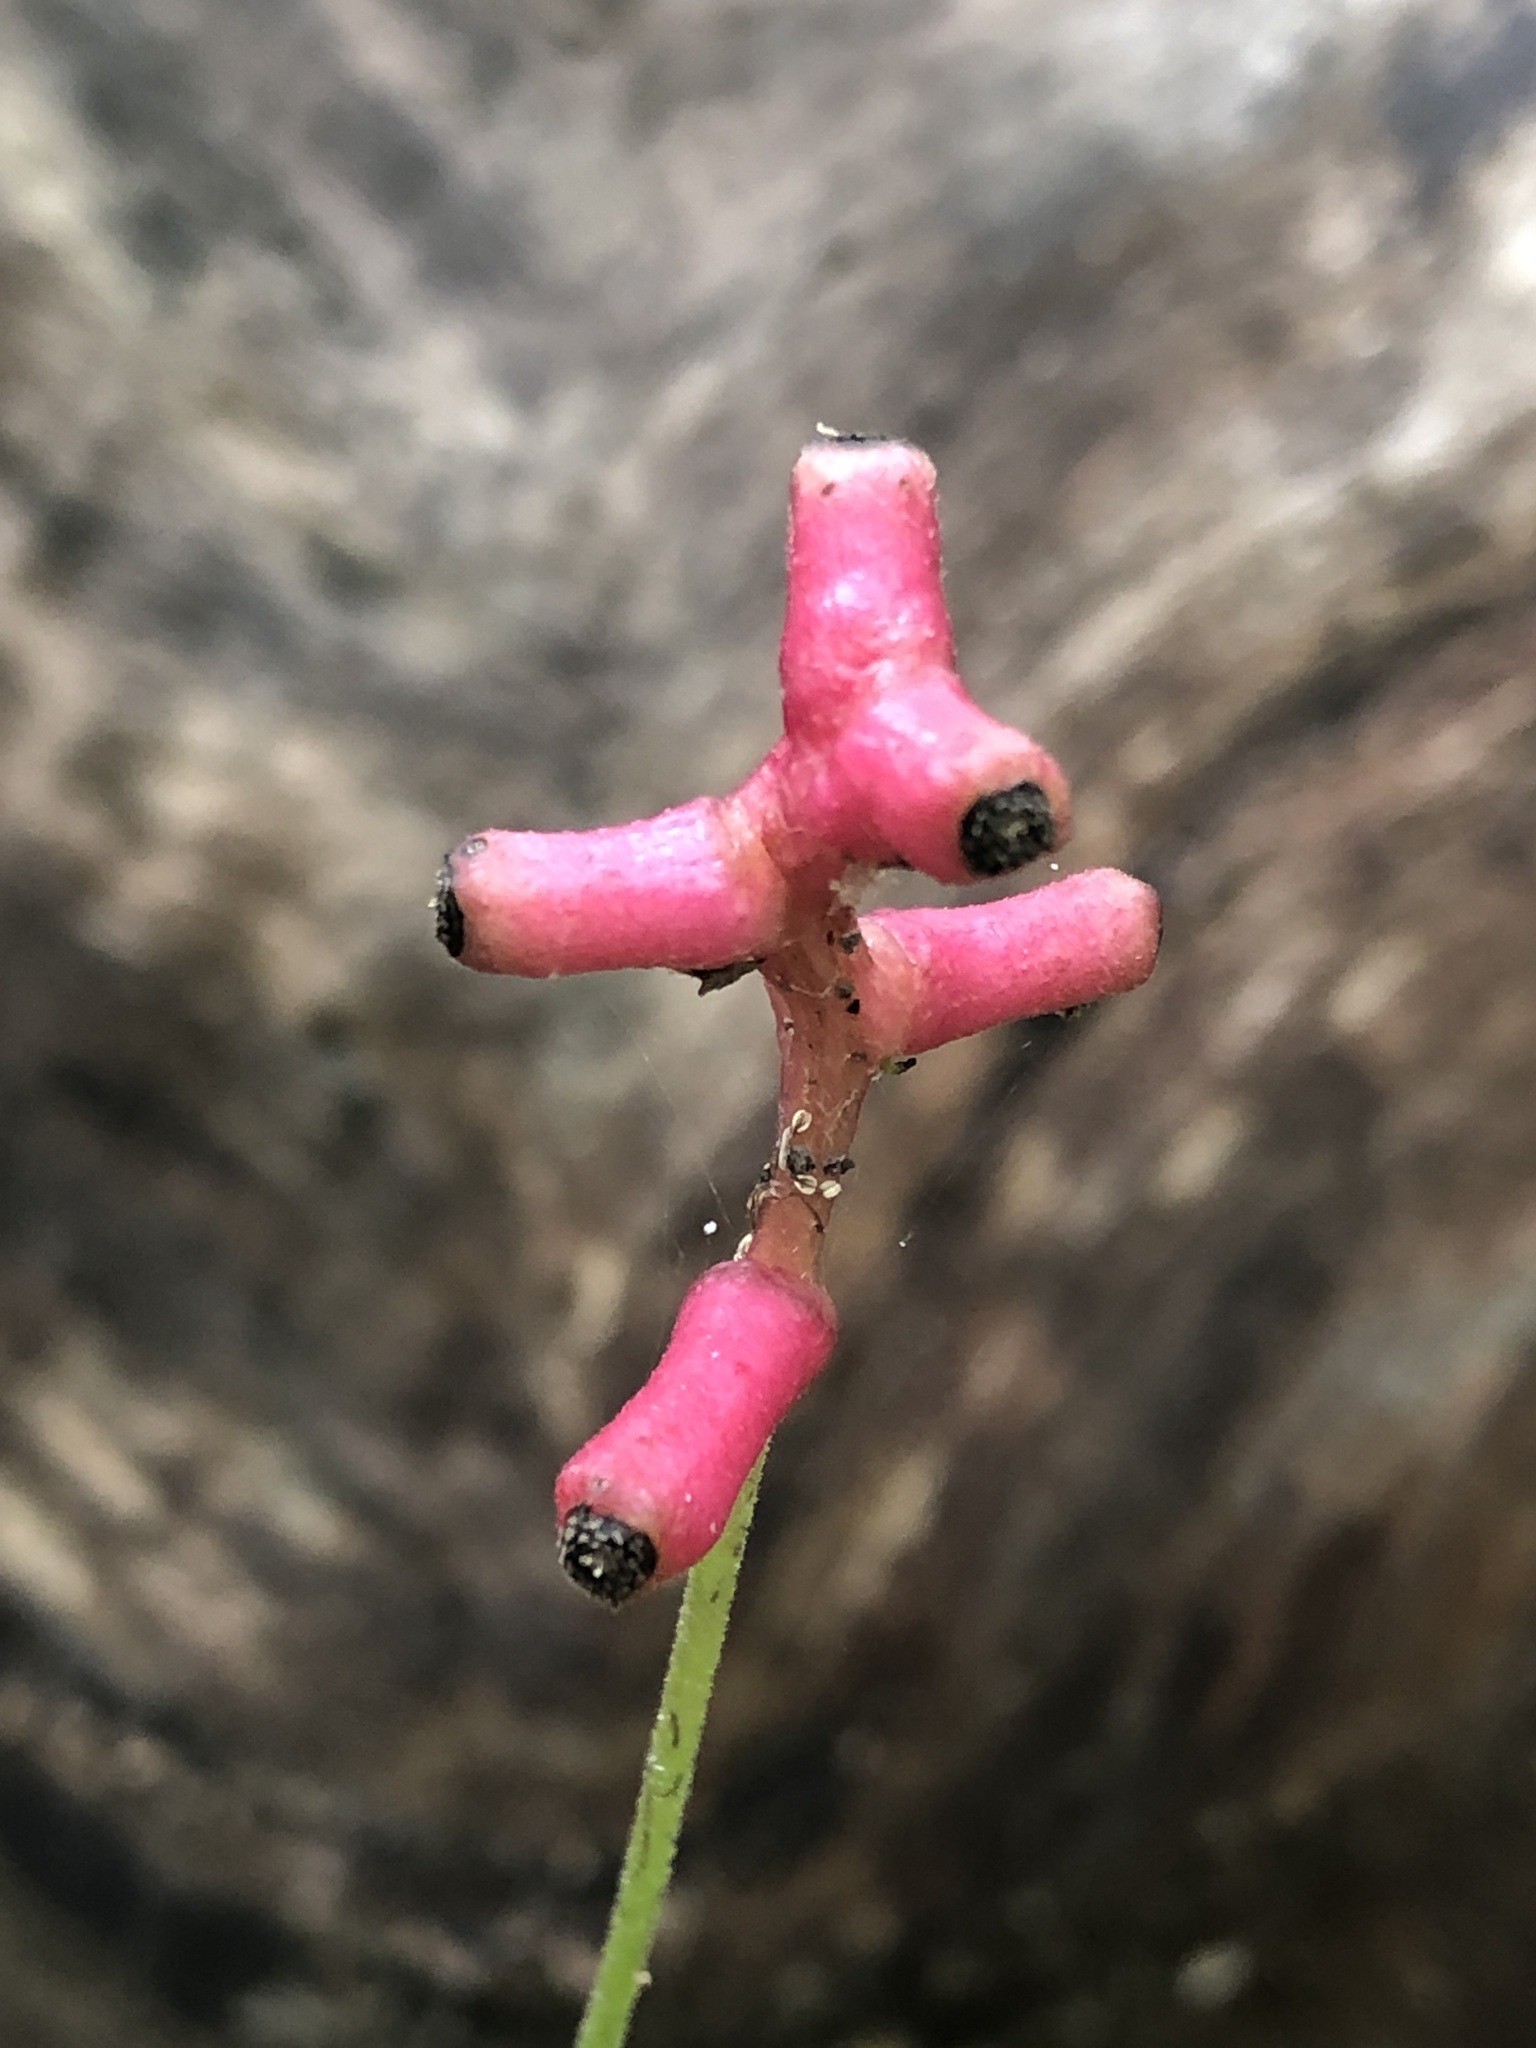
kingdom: Plantae
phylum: Tracheophyta
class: Magnoliopsida
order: Ranunculales
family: Ranunculaceae
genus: Actaea
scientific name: Actaea pachypoda
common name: Doll's-eyes
